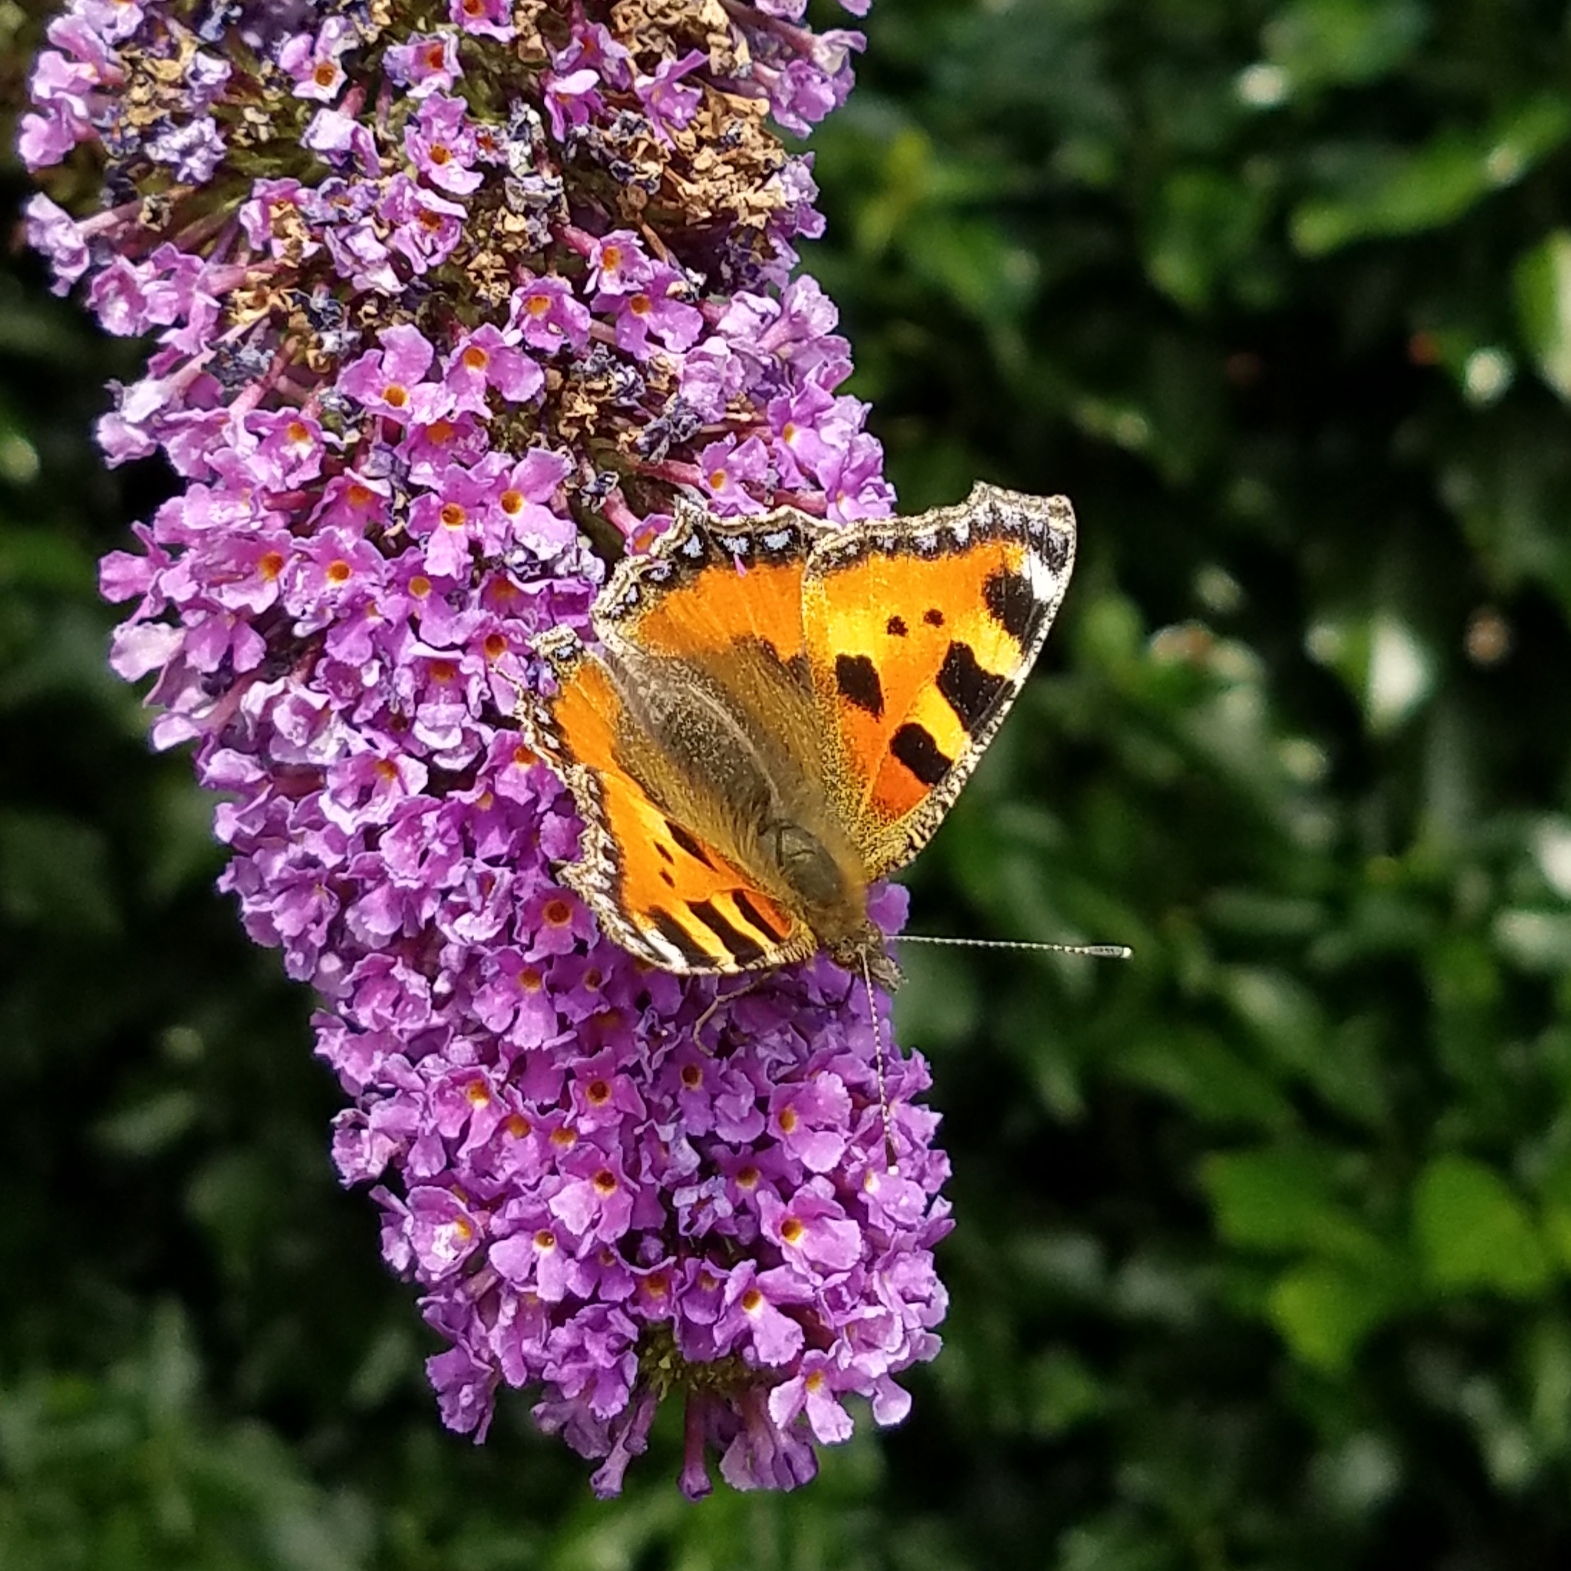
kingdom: Animalia
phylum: Arthropoda
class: Insecta
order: Lepidoptera
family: Nymphalidae
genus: Aglais
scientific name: Aglais urticae
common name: Small tortoiseshell
